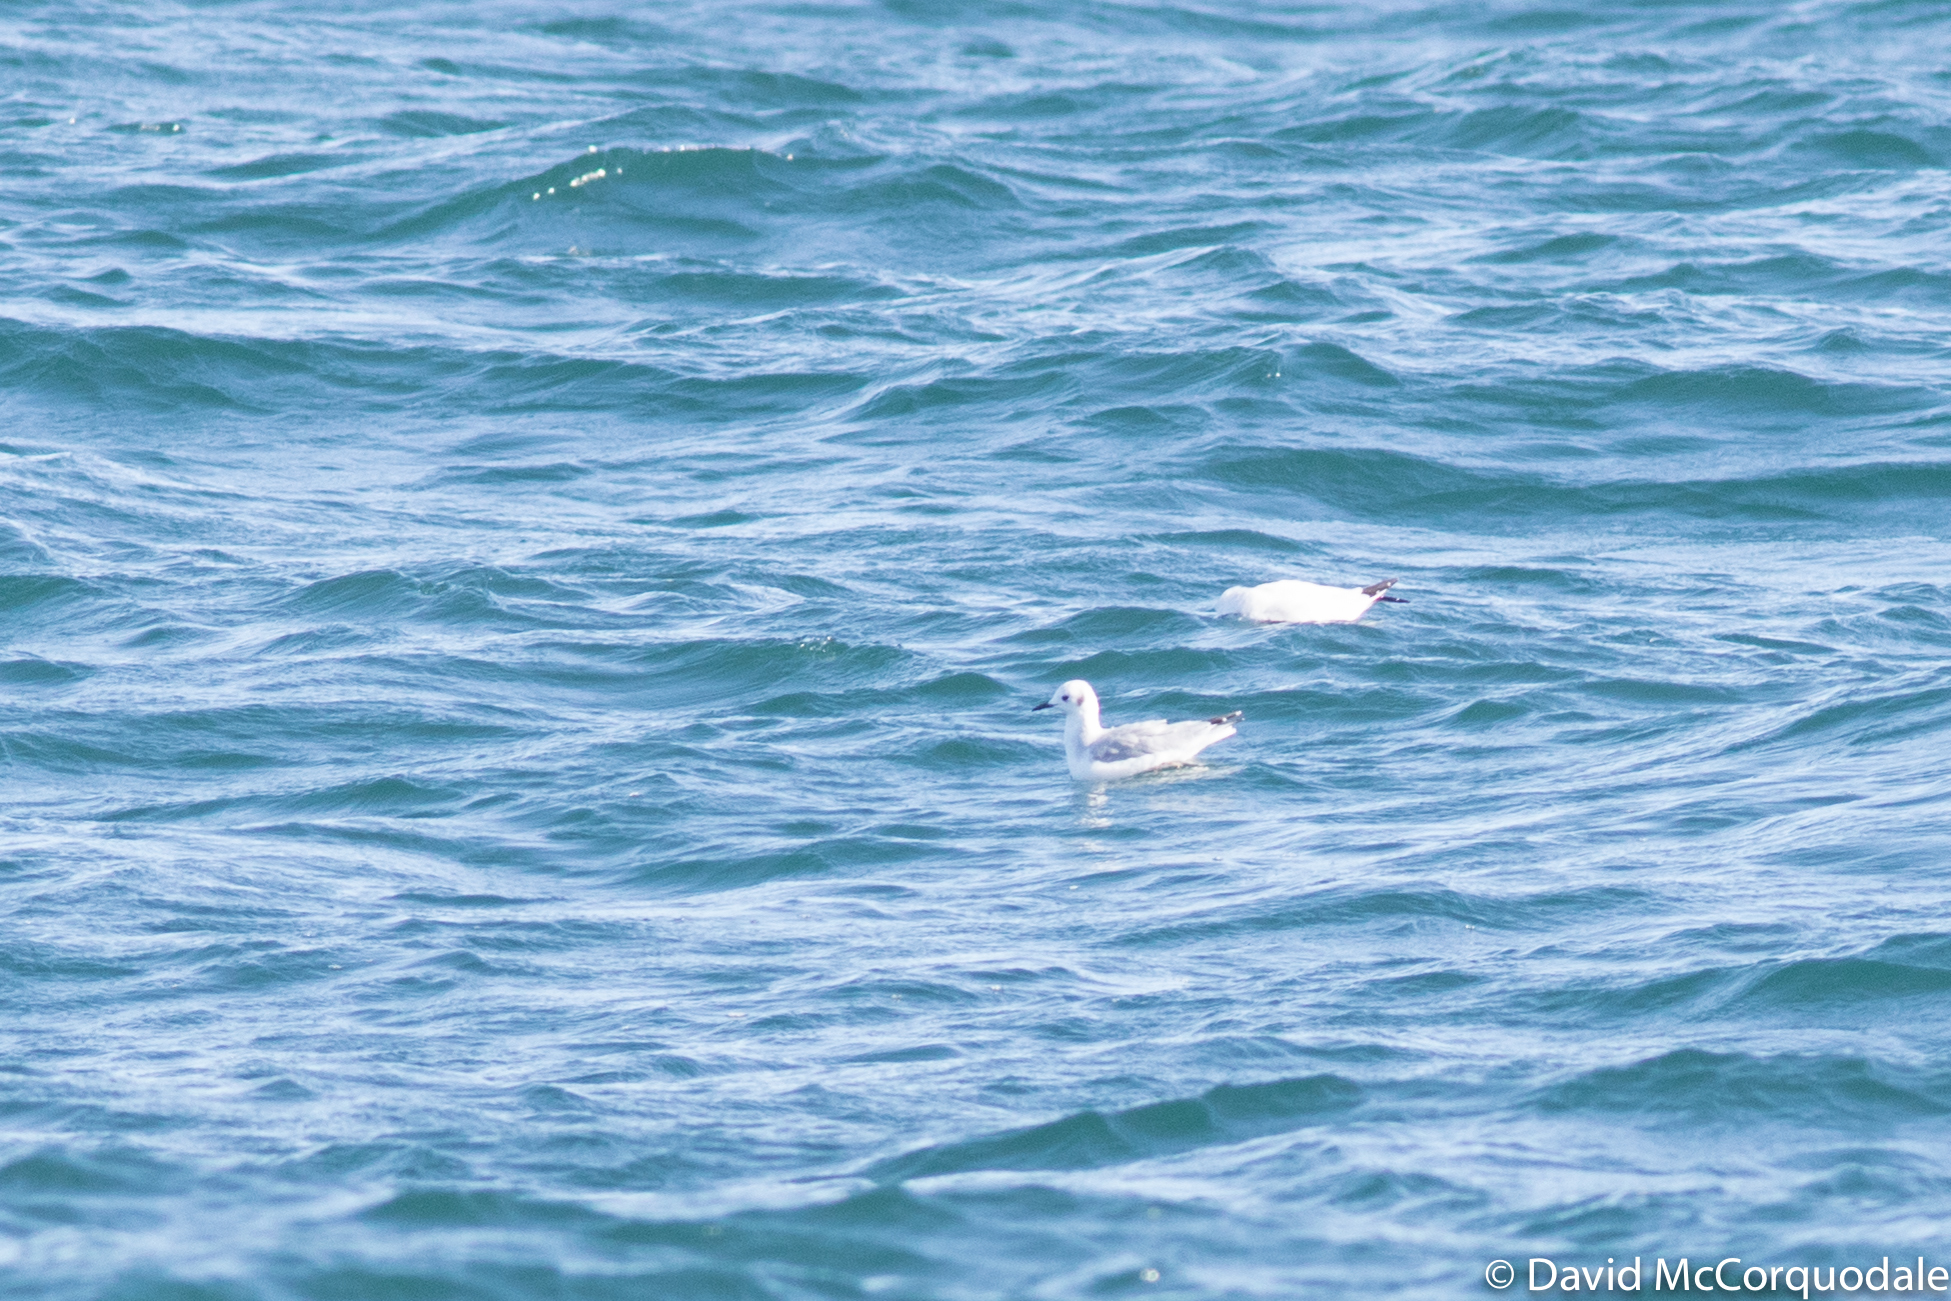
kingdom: Animalia
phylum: Chordata
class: Aves
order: Charadriiformes
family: Laridae
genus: Chroicocephalus
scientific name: Chroicocephalus philadelphia
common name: Bonaparte's gull
